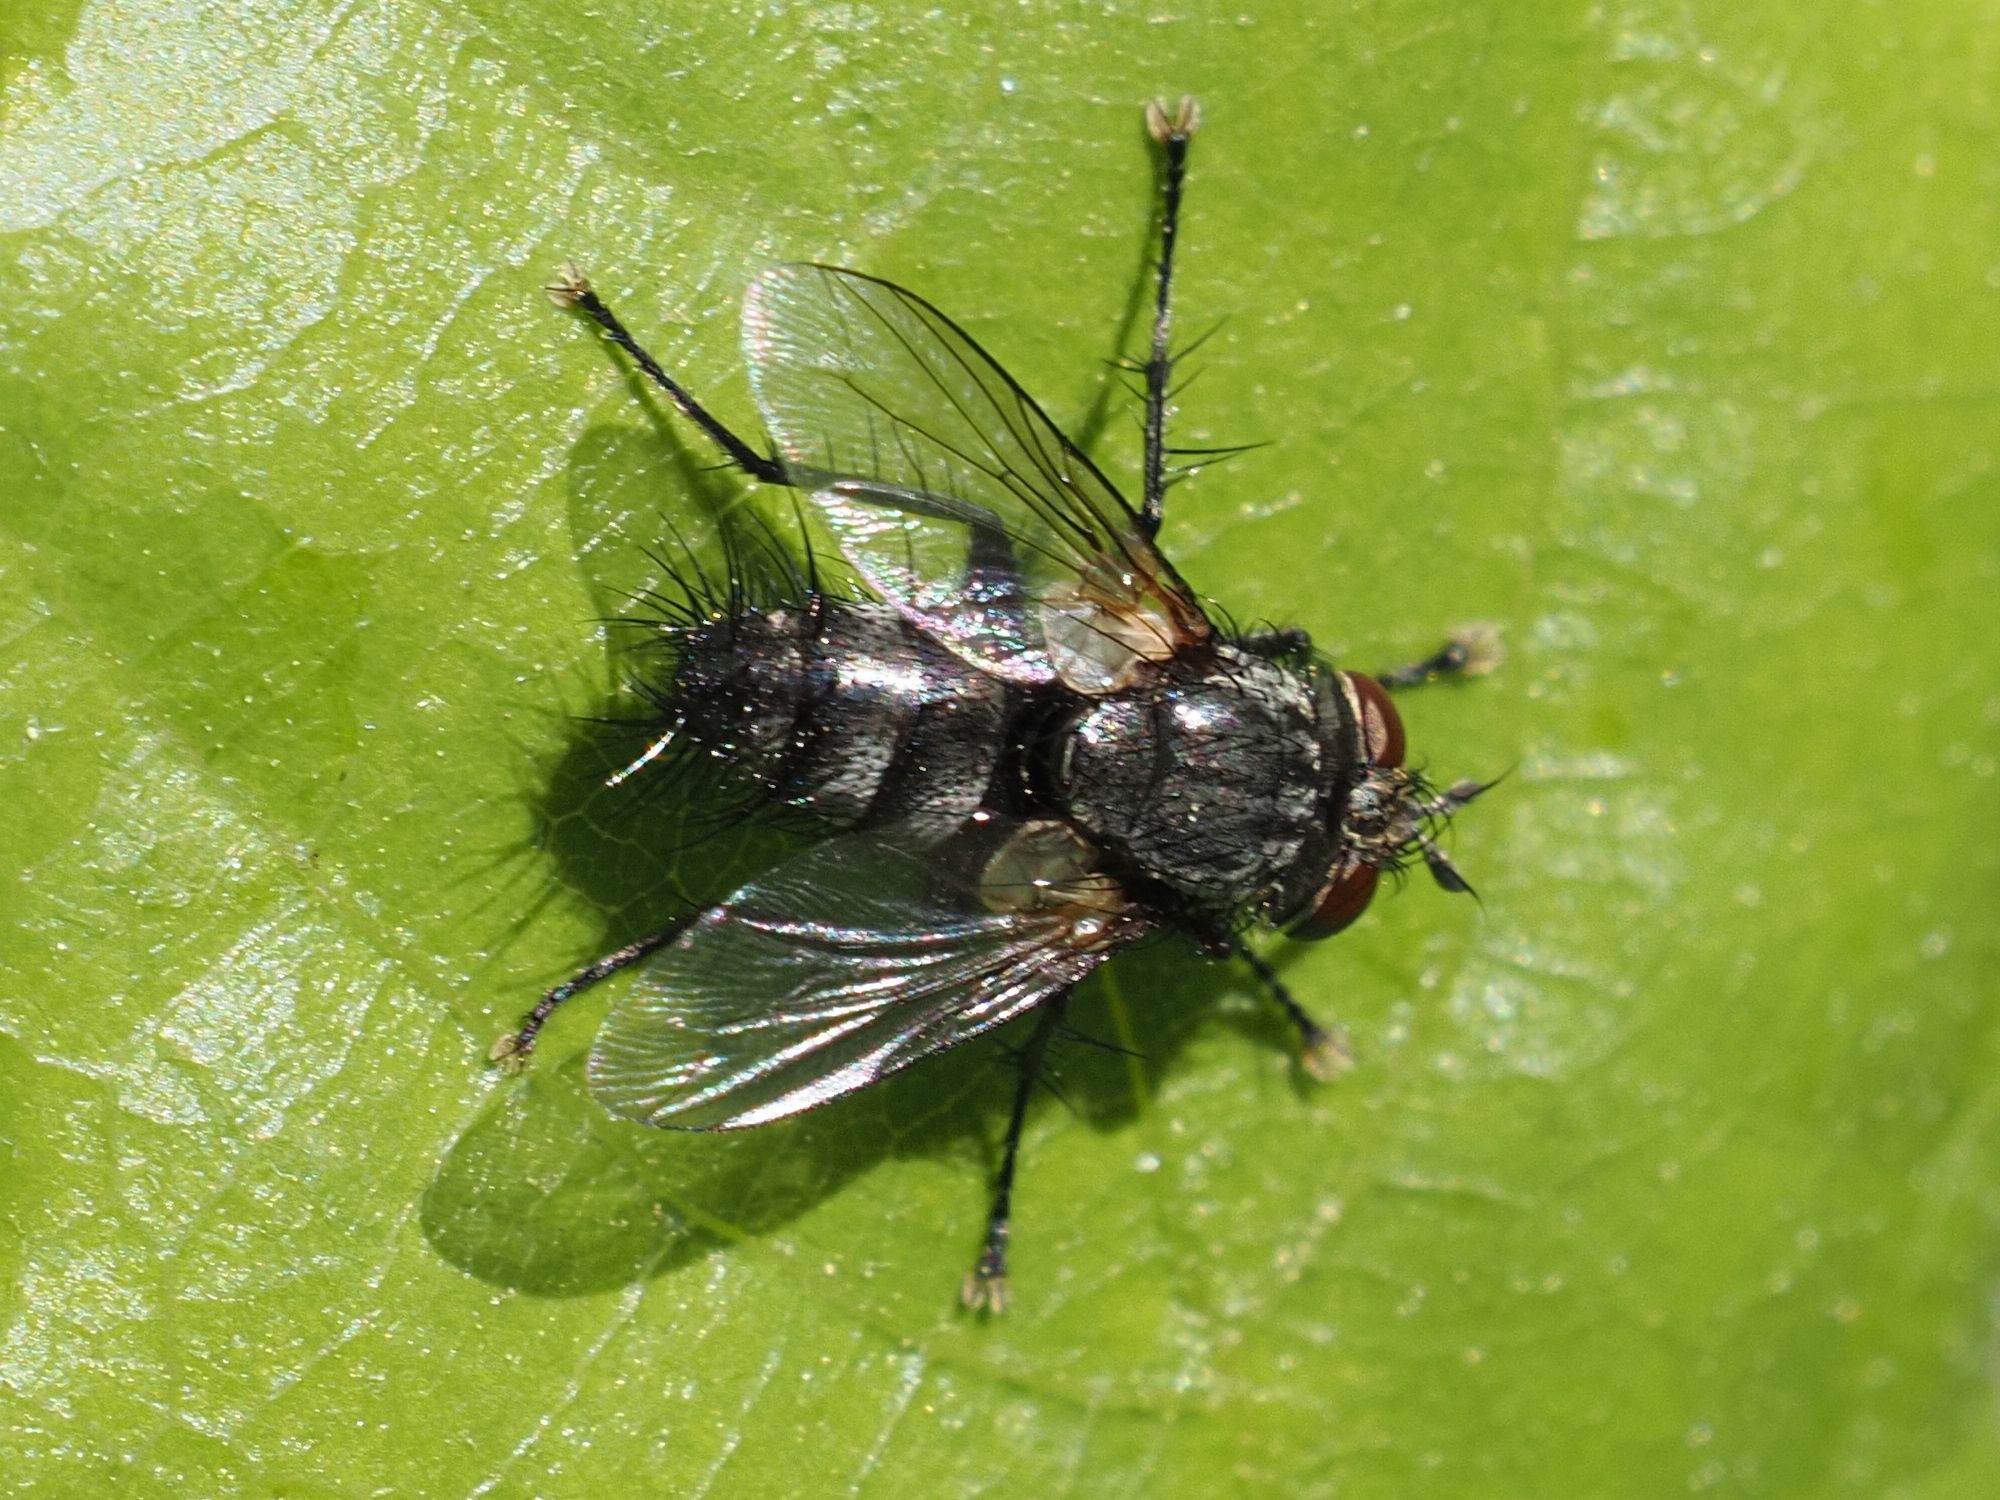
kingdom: Animalia
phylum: Arthropoda
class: Insecta
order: Diptera
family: Tachinidae
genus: Voria
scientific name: Voria ruralis
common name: Parasitic fly
